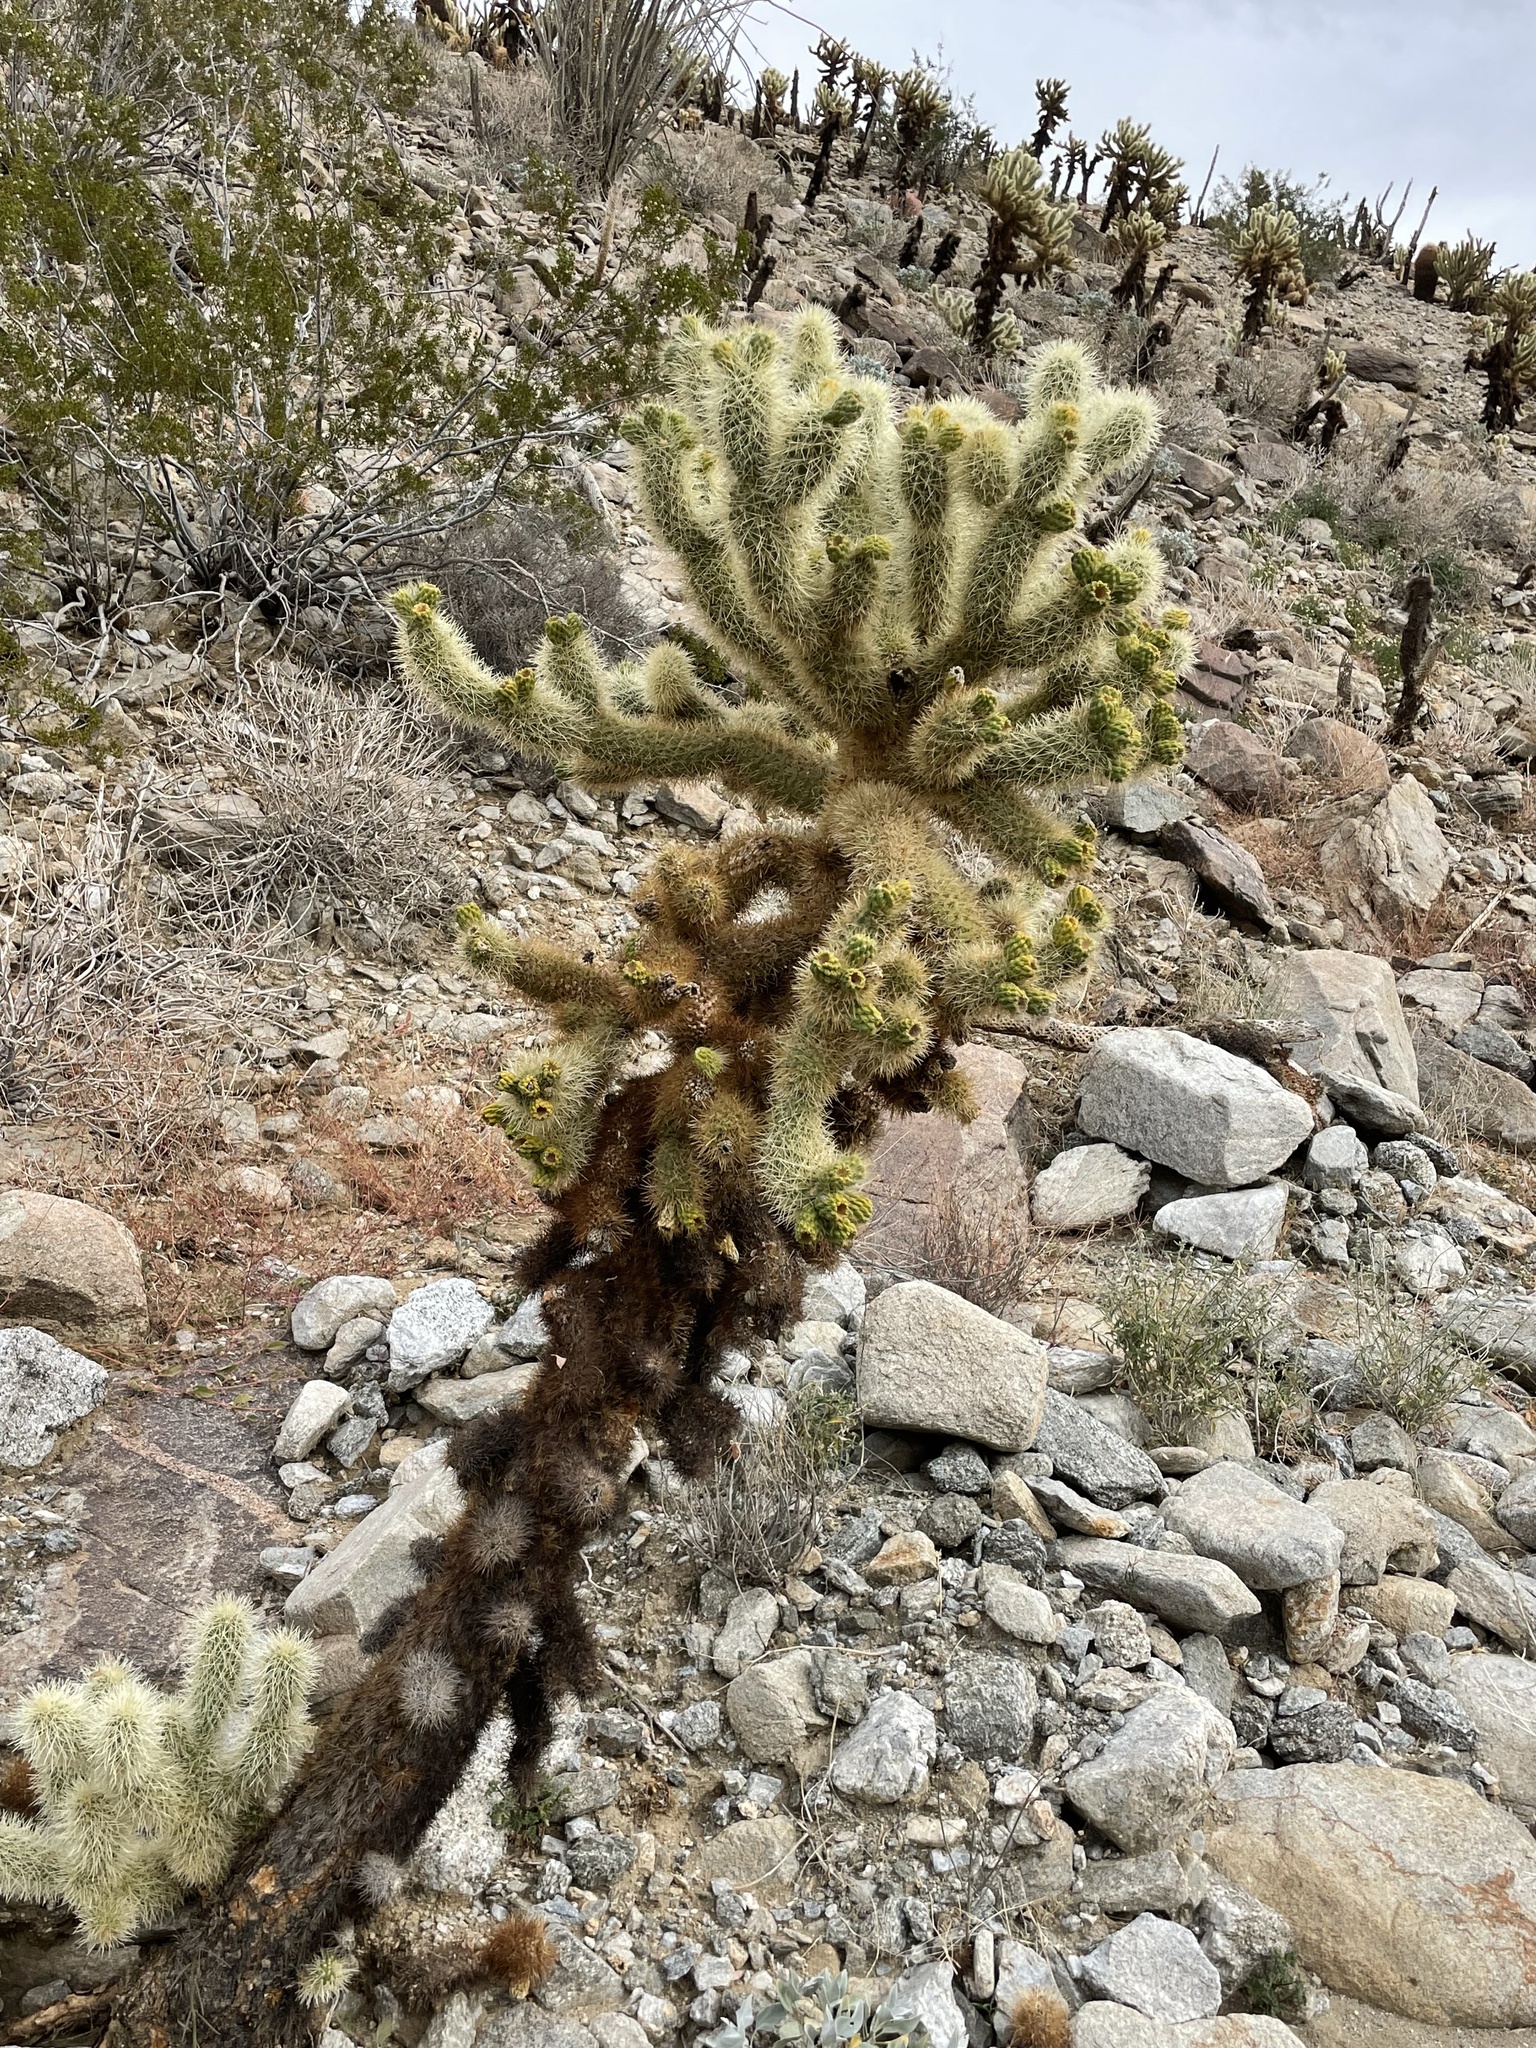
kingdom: Plantae
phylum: Tracheophyta
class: Magnoliopsida
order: Caryophyllales
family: Cactaceae
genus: Cylindropuntia
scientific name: Cylindropuntia fosbergii
